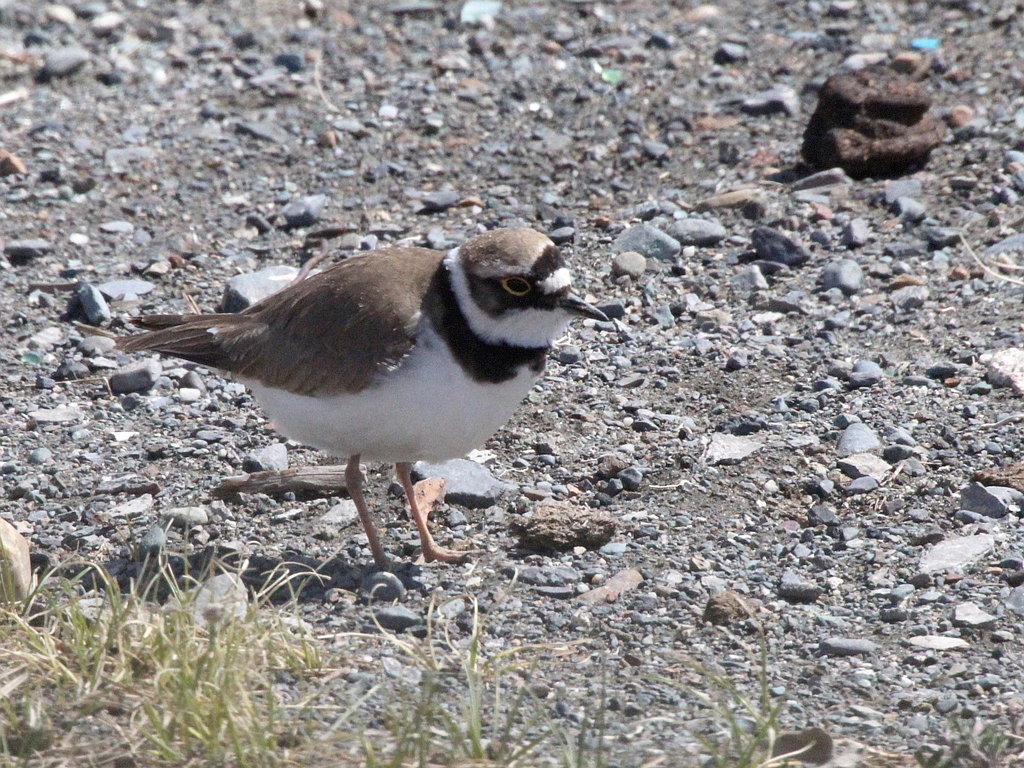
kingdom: Animalia
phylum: Chordata
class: Aves
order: Charadriiformes
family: Charadriidae
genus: Charadrius
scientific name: Charadrius dubius
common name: Little ringed plover
